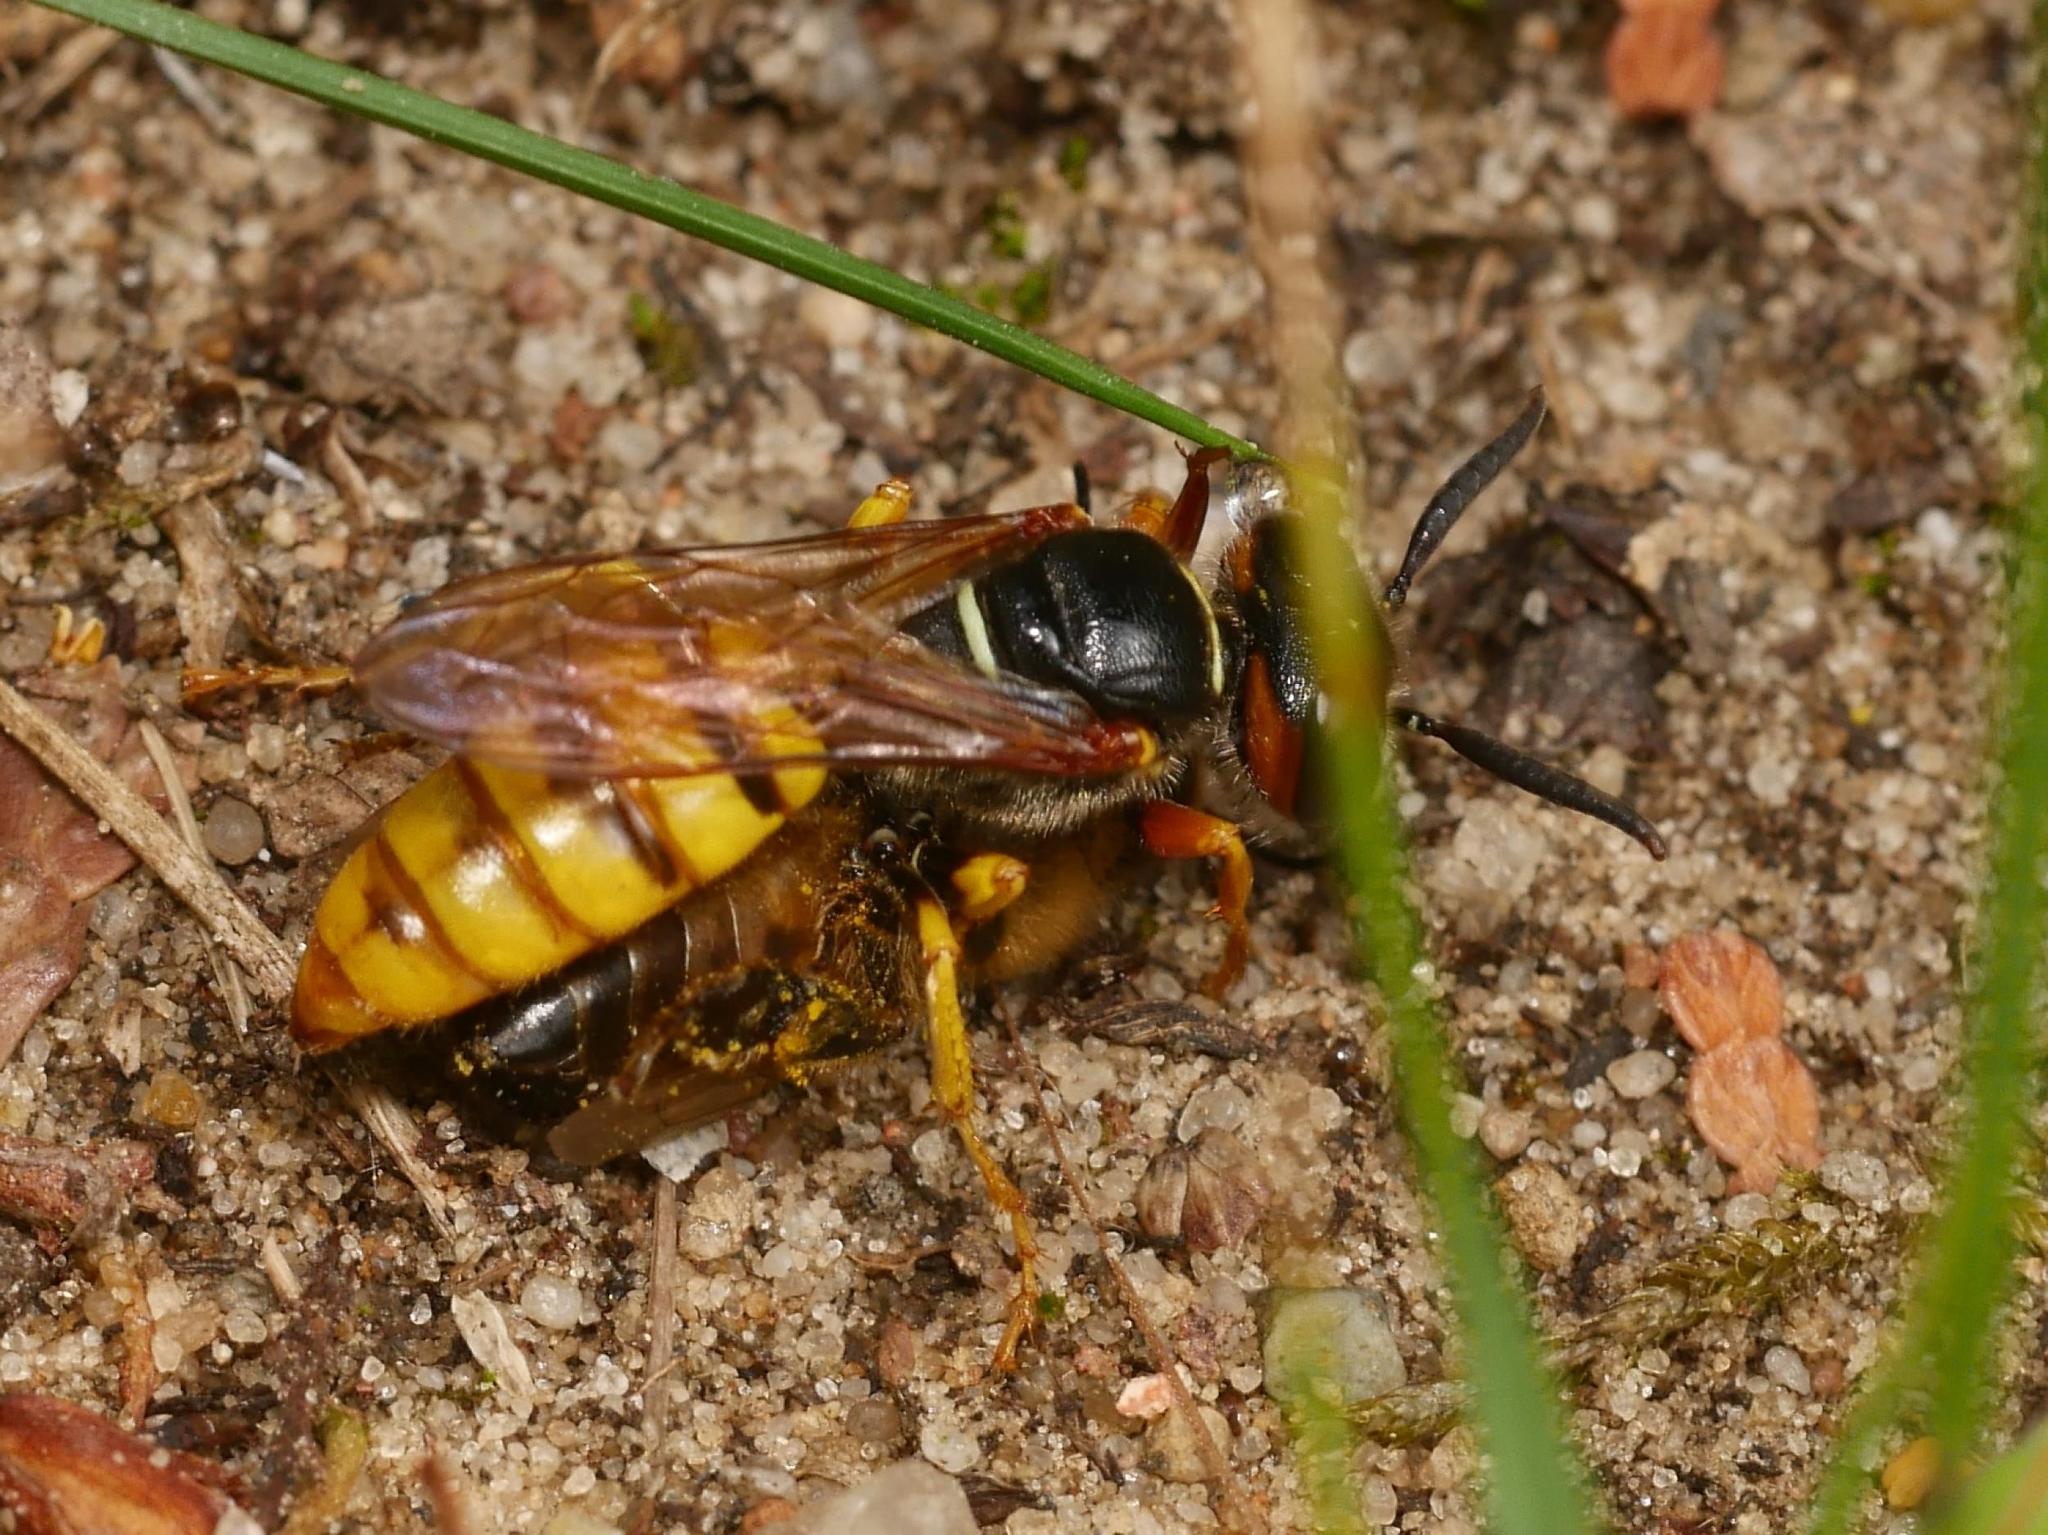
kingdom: Animalia
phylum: Arthropoda
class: Insecta
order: Hymenoptera
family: Crabronidae
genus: Philanthus
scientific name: Philanthus triangulum
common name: Bee wolf
